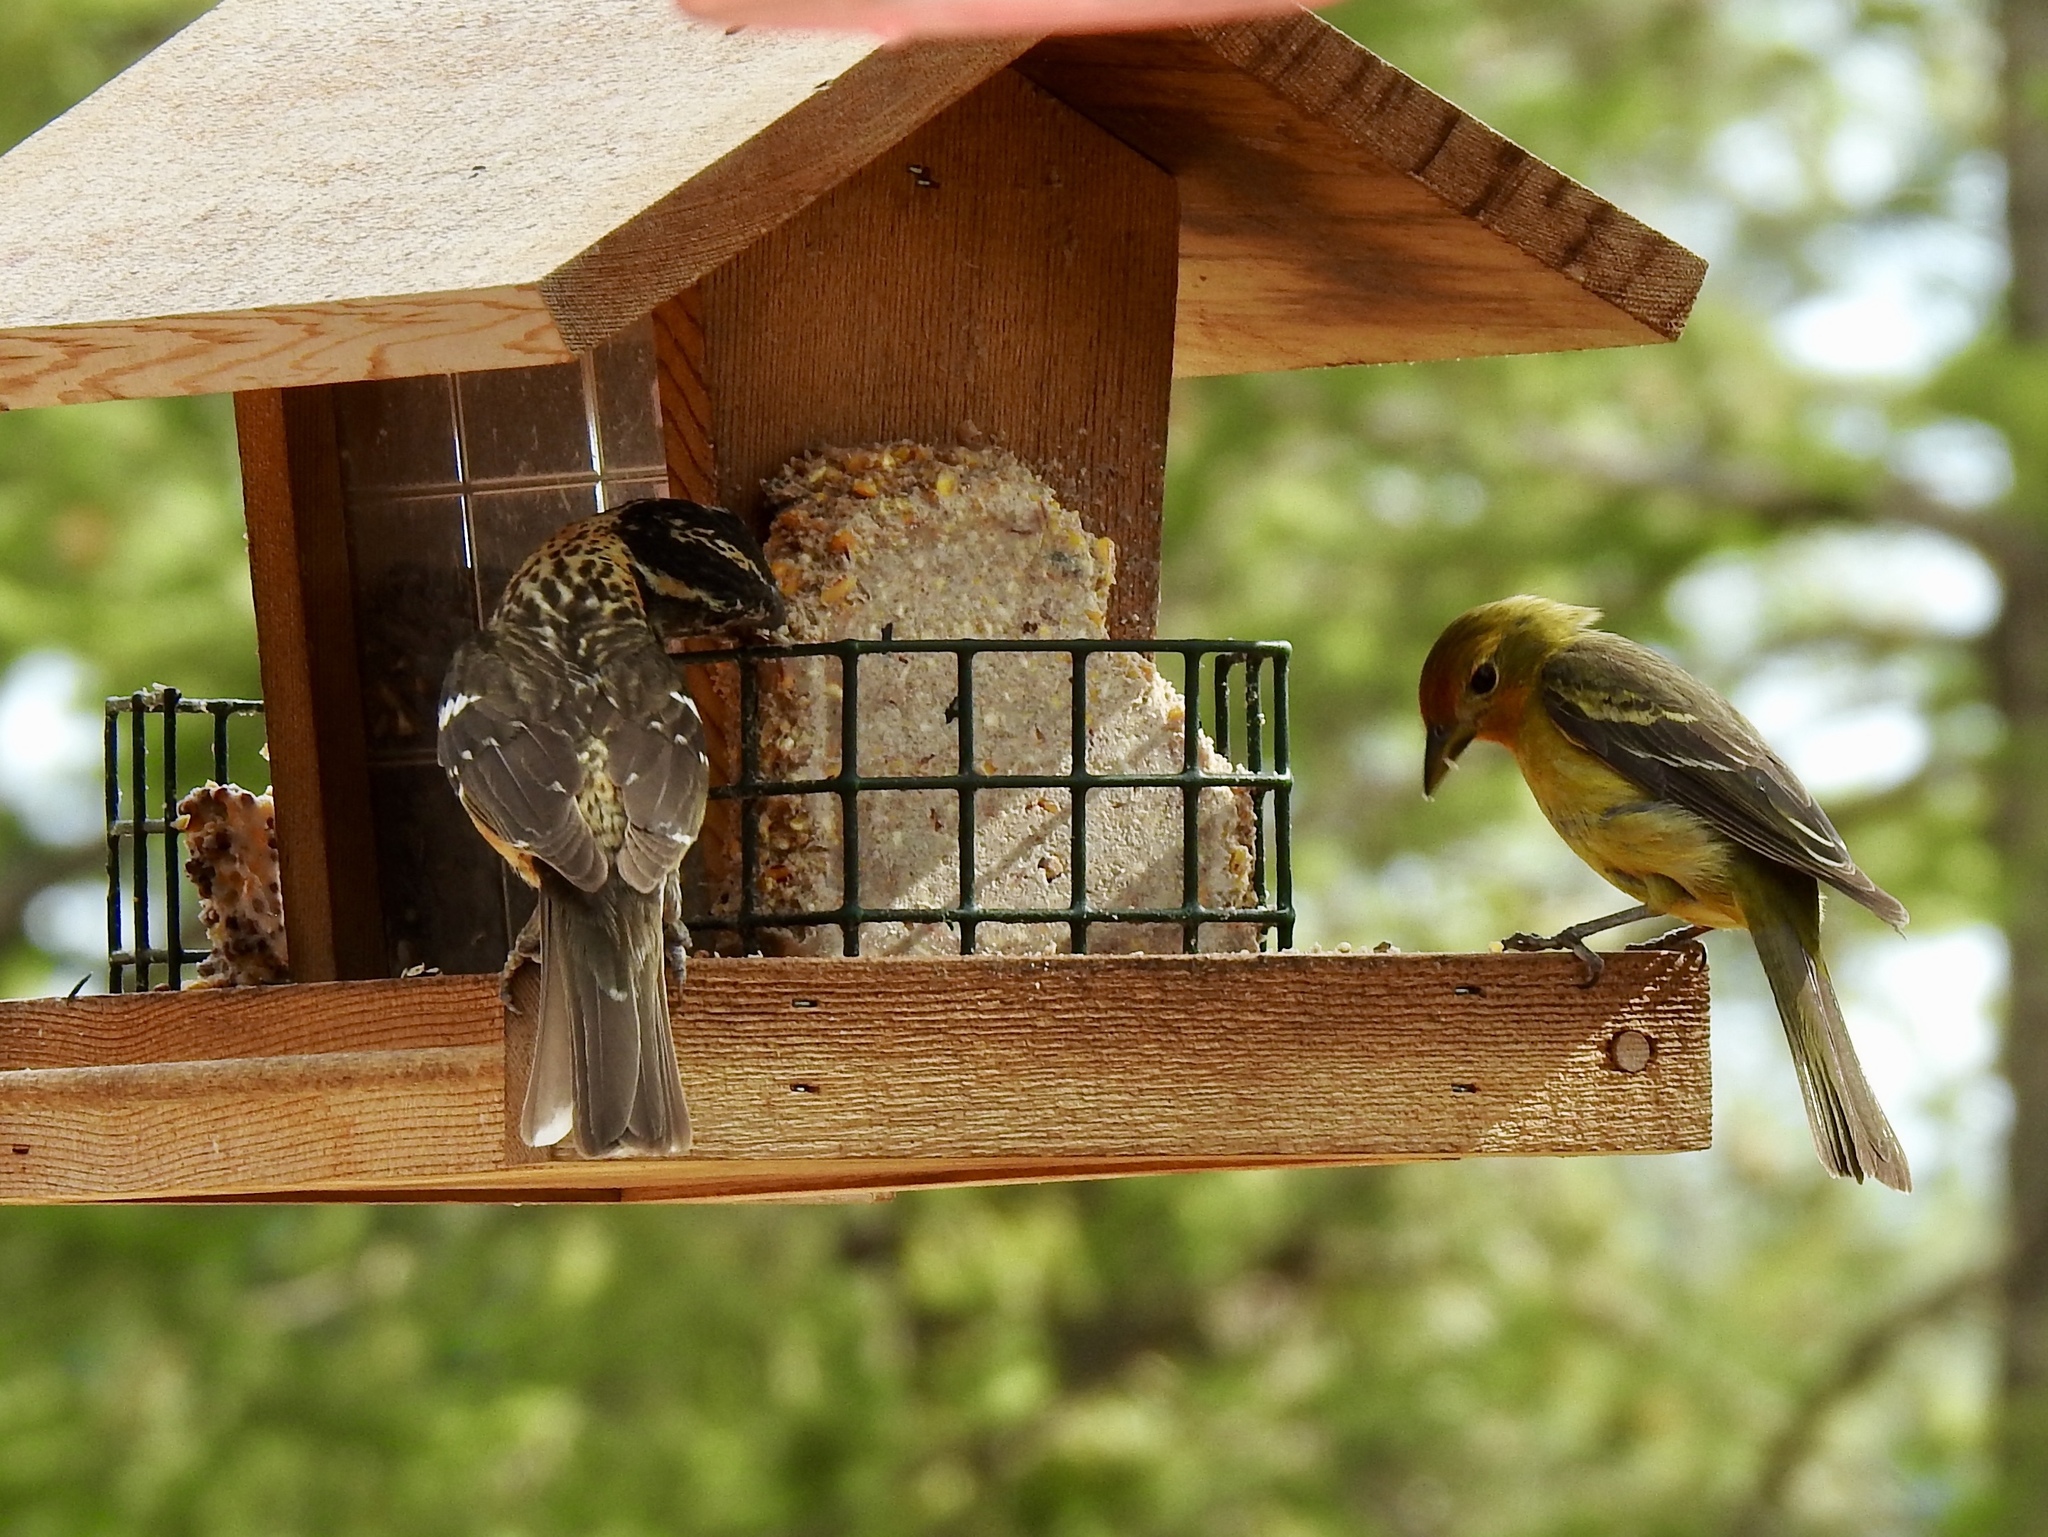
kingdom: Animalia
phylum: Chordata
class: Aves
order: Passeriformes
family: Cardinalidae
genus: Pheucticus
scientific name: Pheucticus melanocephalus
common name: Black-headed grosbeak
